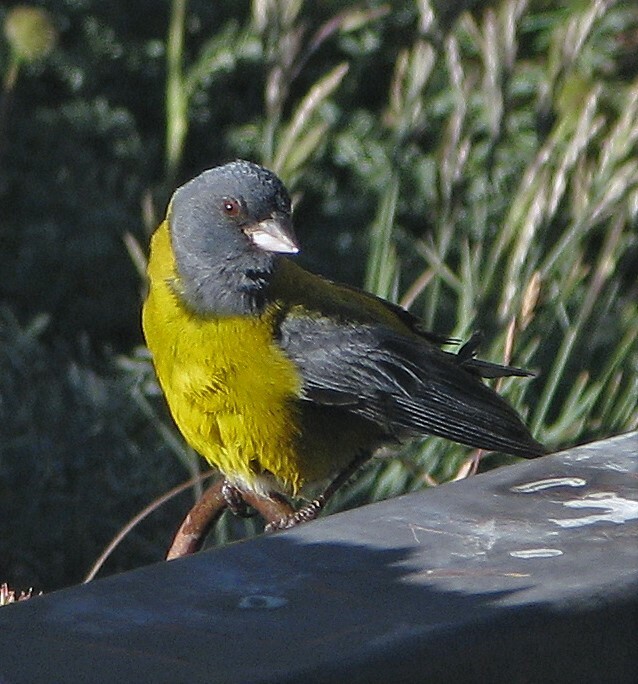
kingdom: Animalia
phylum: Chordata
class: Aves
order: Passeriformes
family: Thraupidae
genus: Phrygilus
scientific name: Phrygilus gayi
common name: Grey-hooded sierra finch
